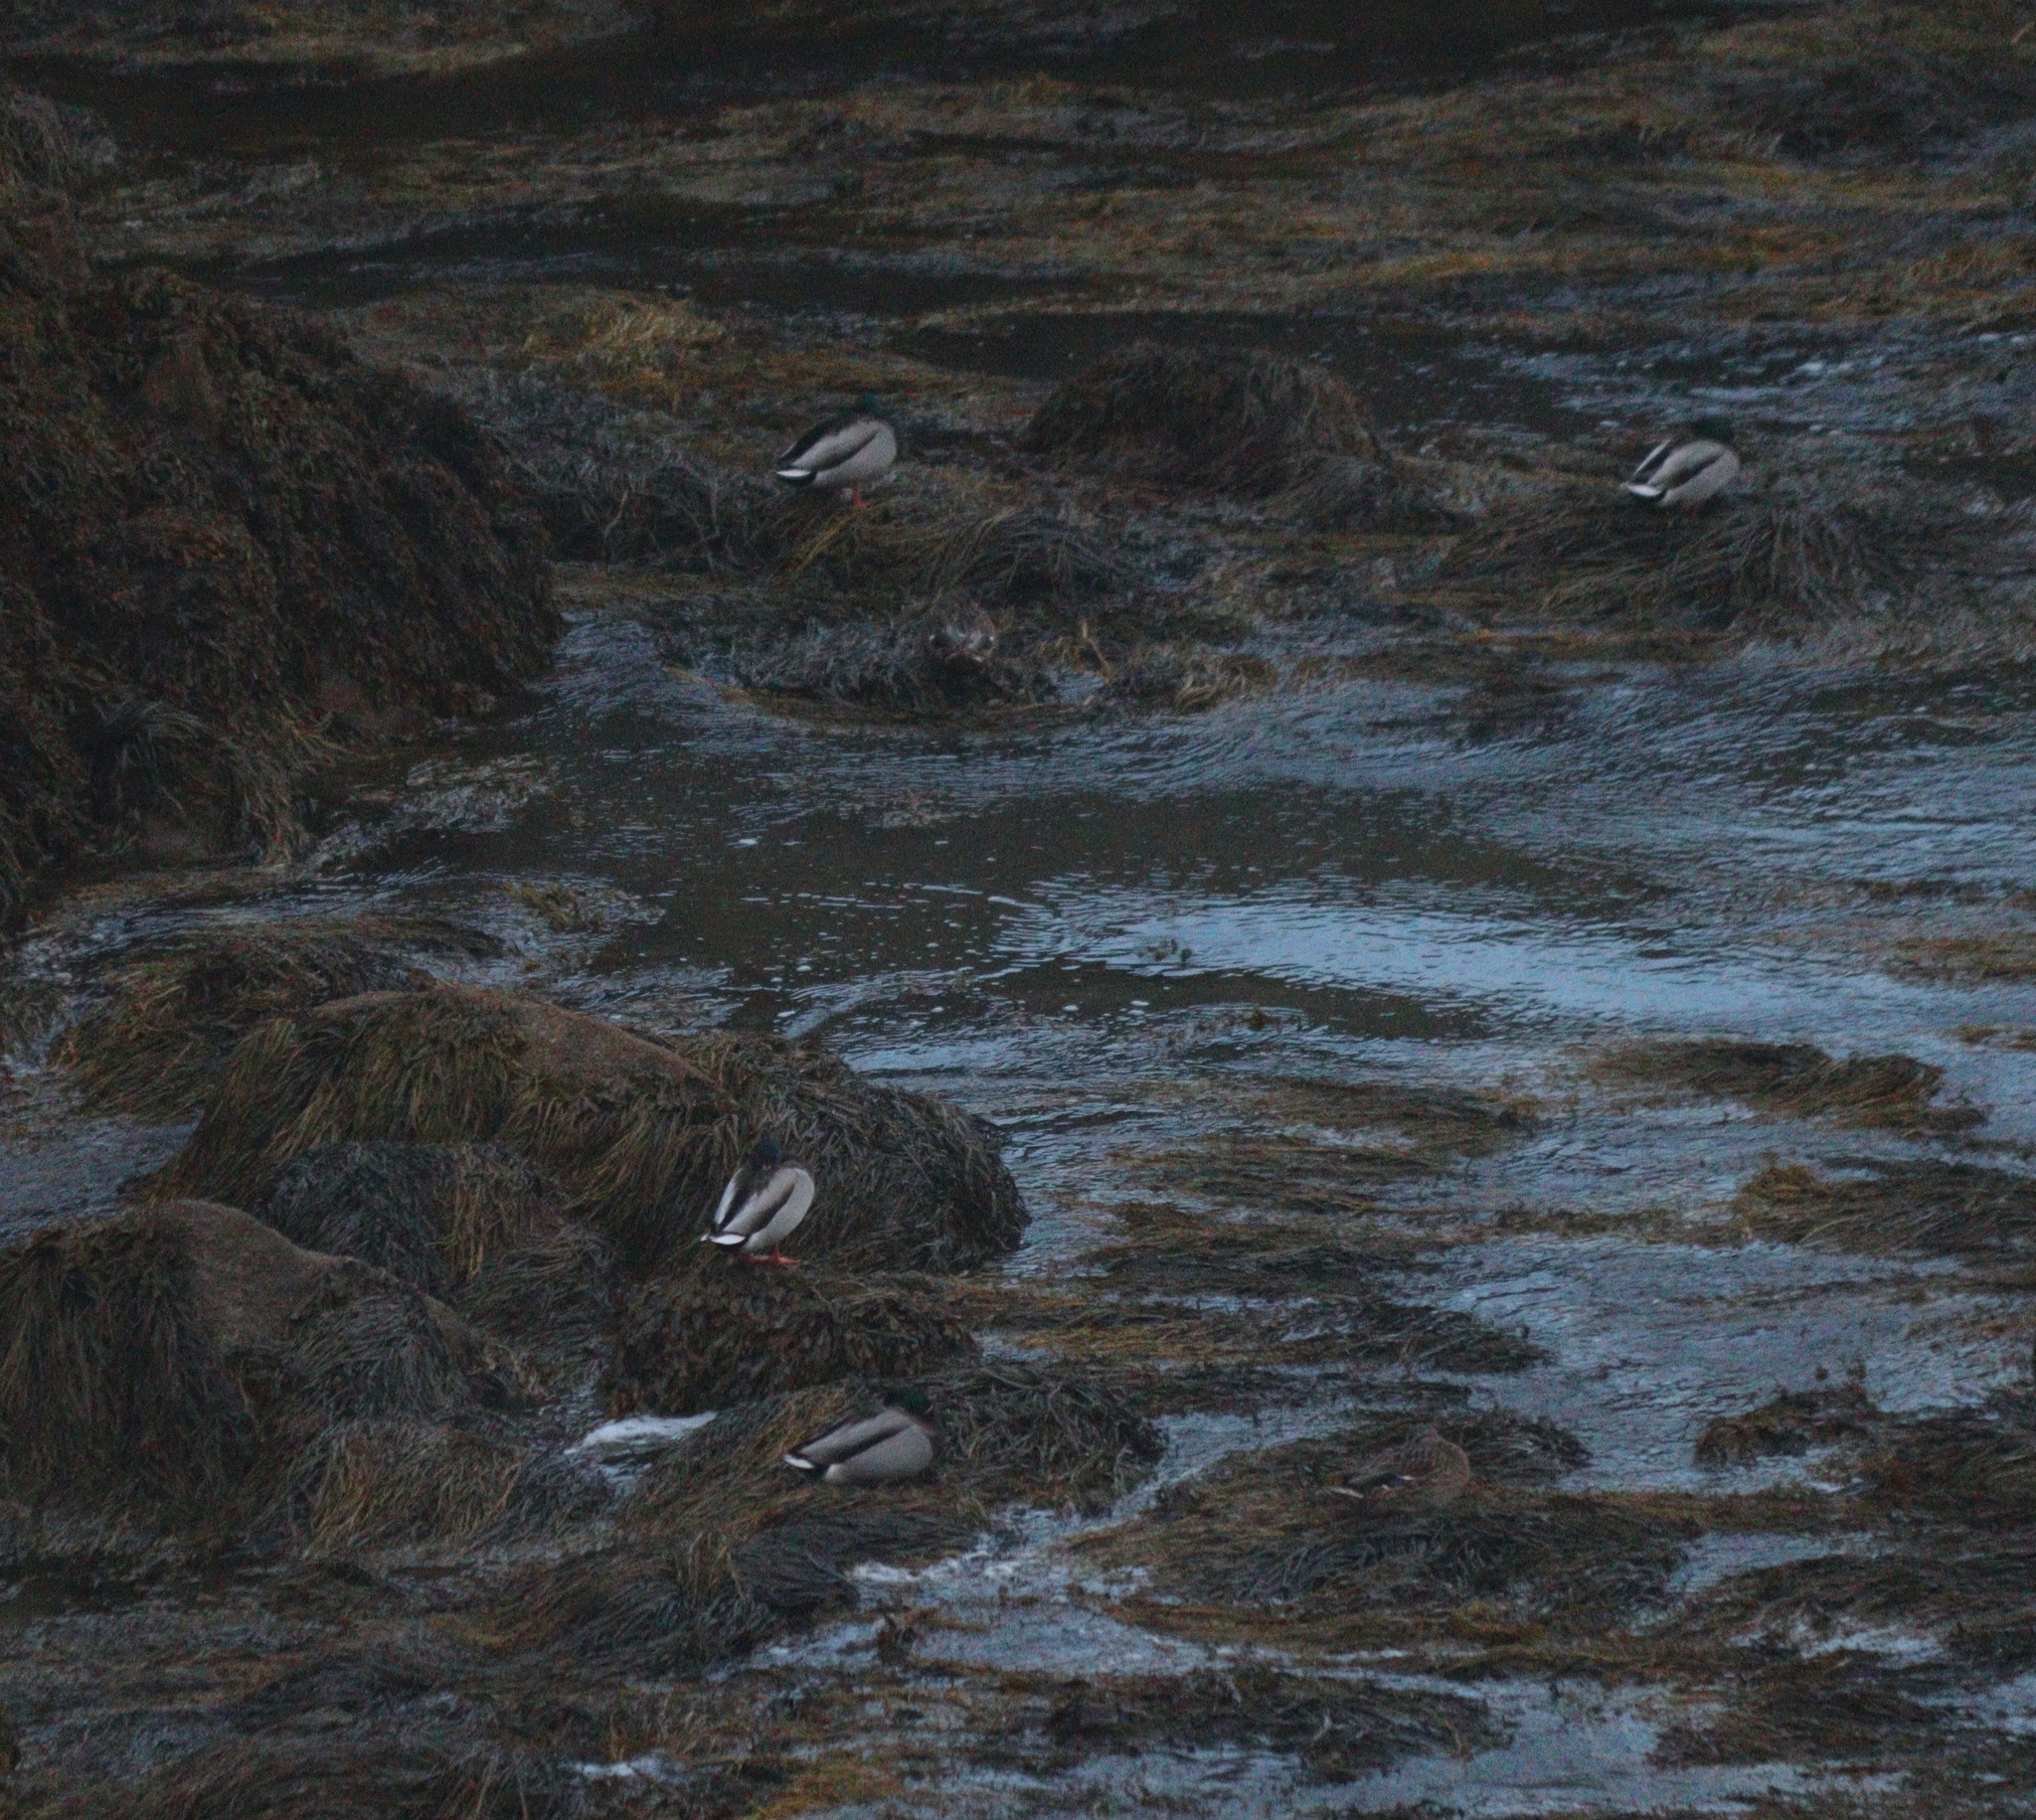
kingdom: Animalia
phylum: Chordata
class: Aves
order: Anseriformes
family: Anatidae
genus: Anas
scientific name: Anas platyrhynchos
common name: Mallard
